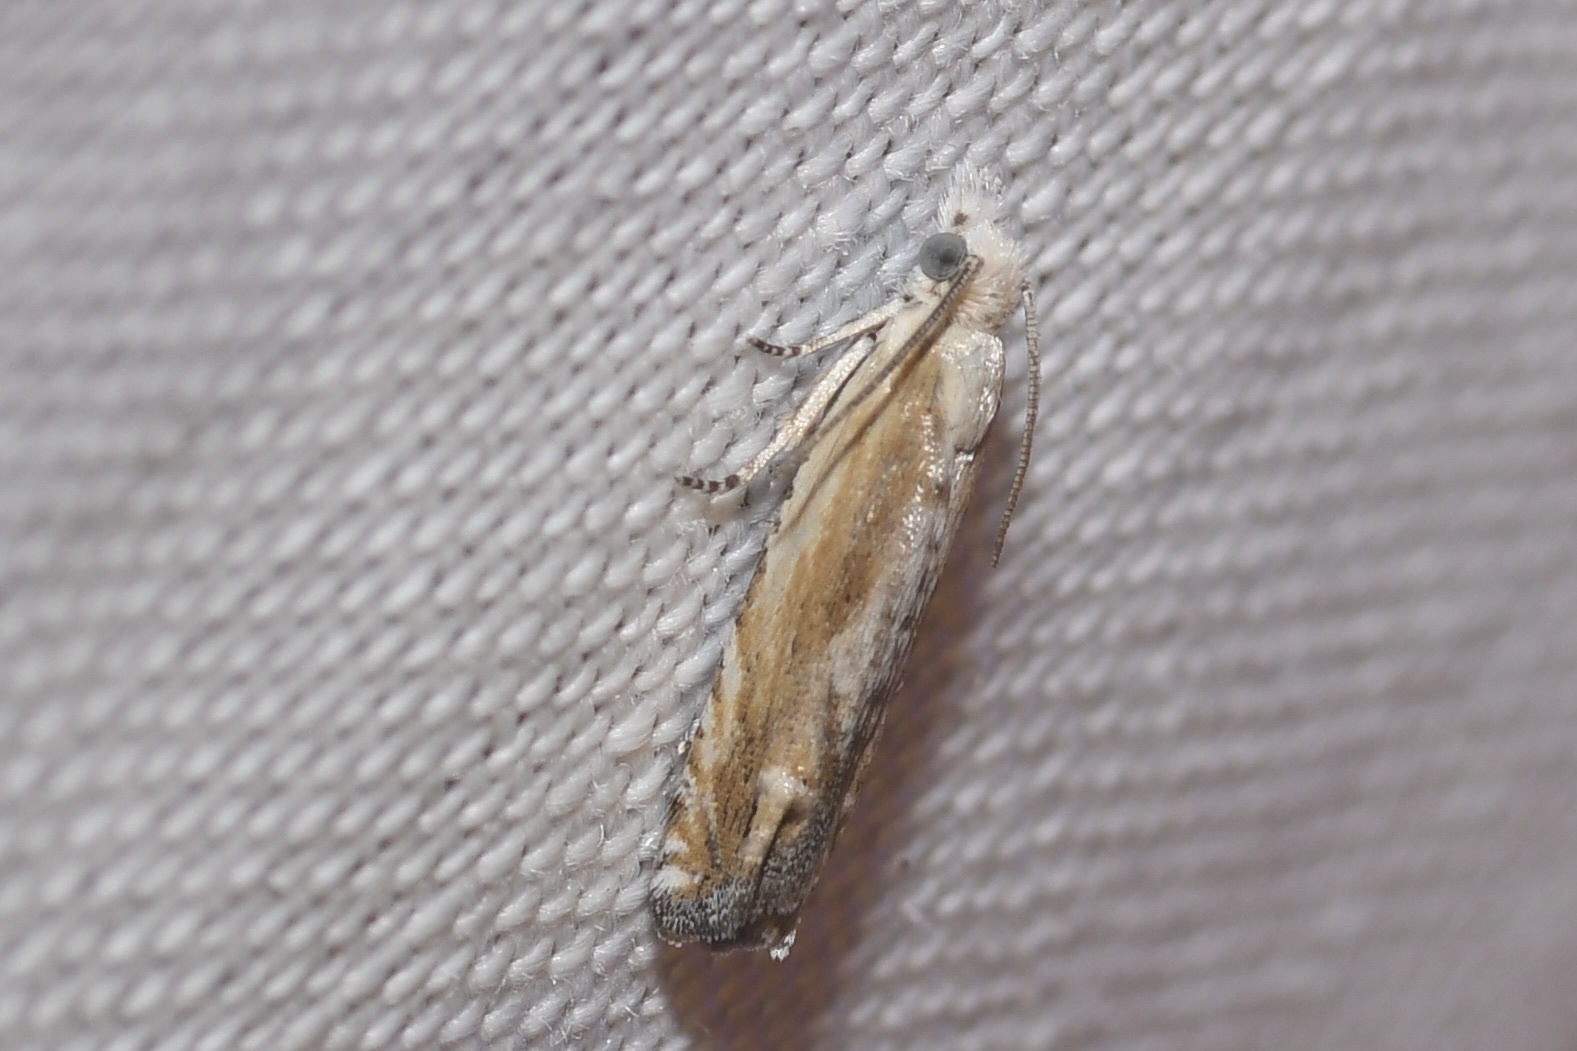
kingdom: Animalia
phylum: Arthropoda
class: Insecta
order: Lepidoptera
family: Tortricidae
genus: Eucosma
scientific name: Eucosma kiscana
